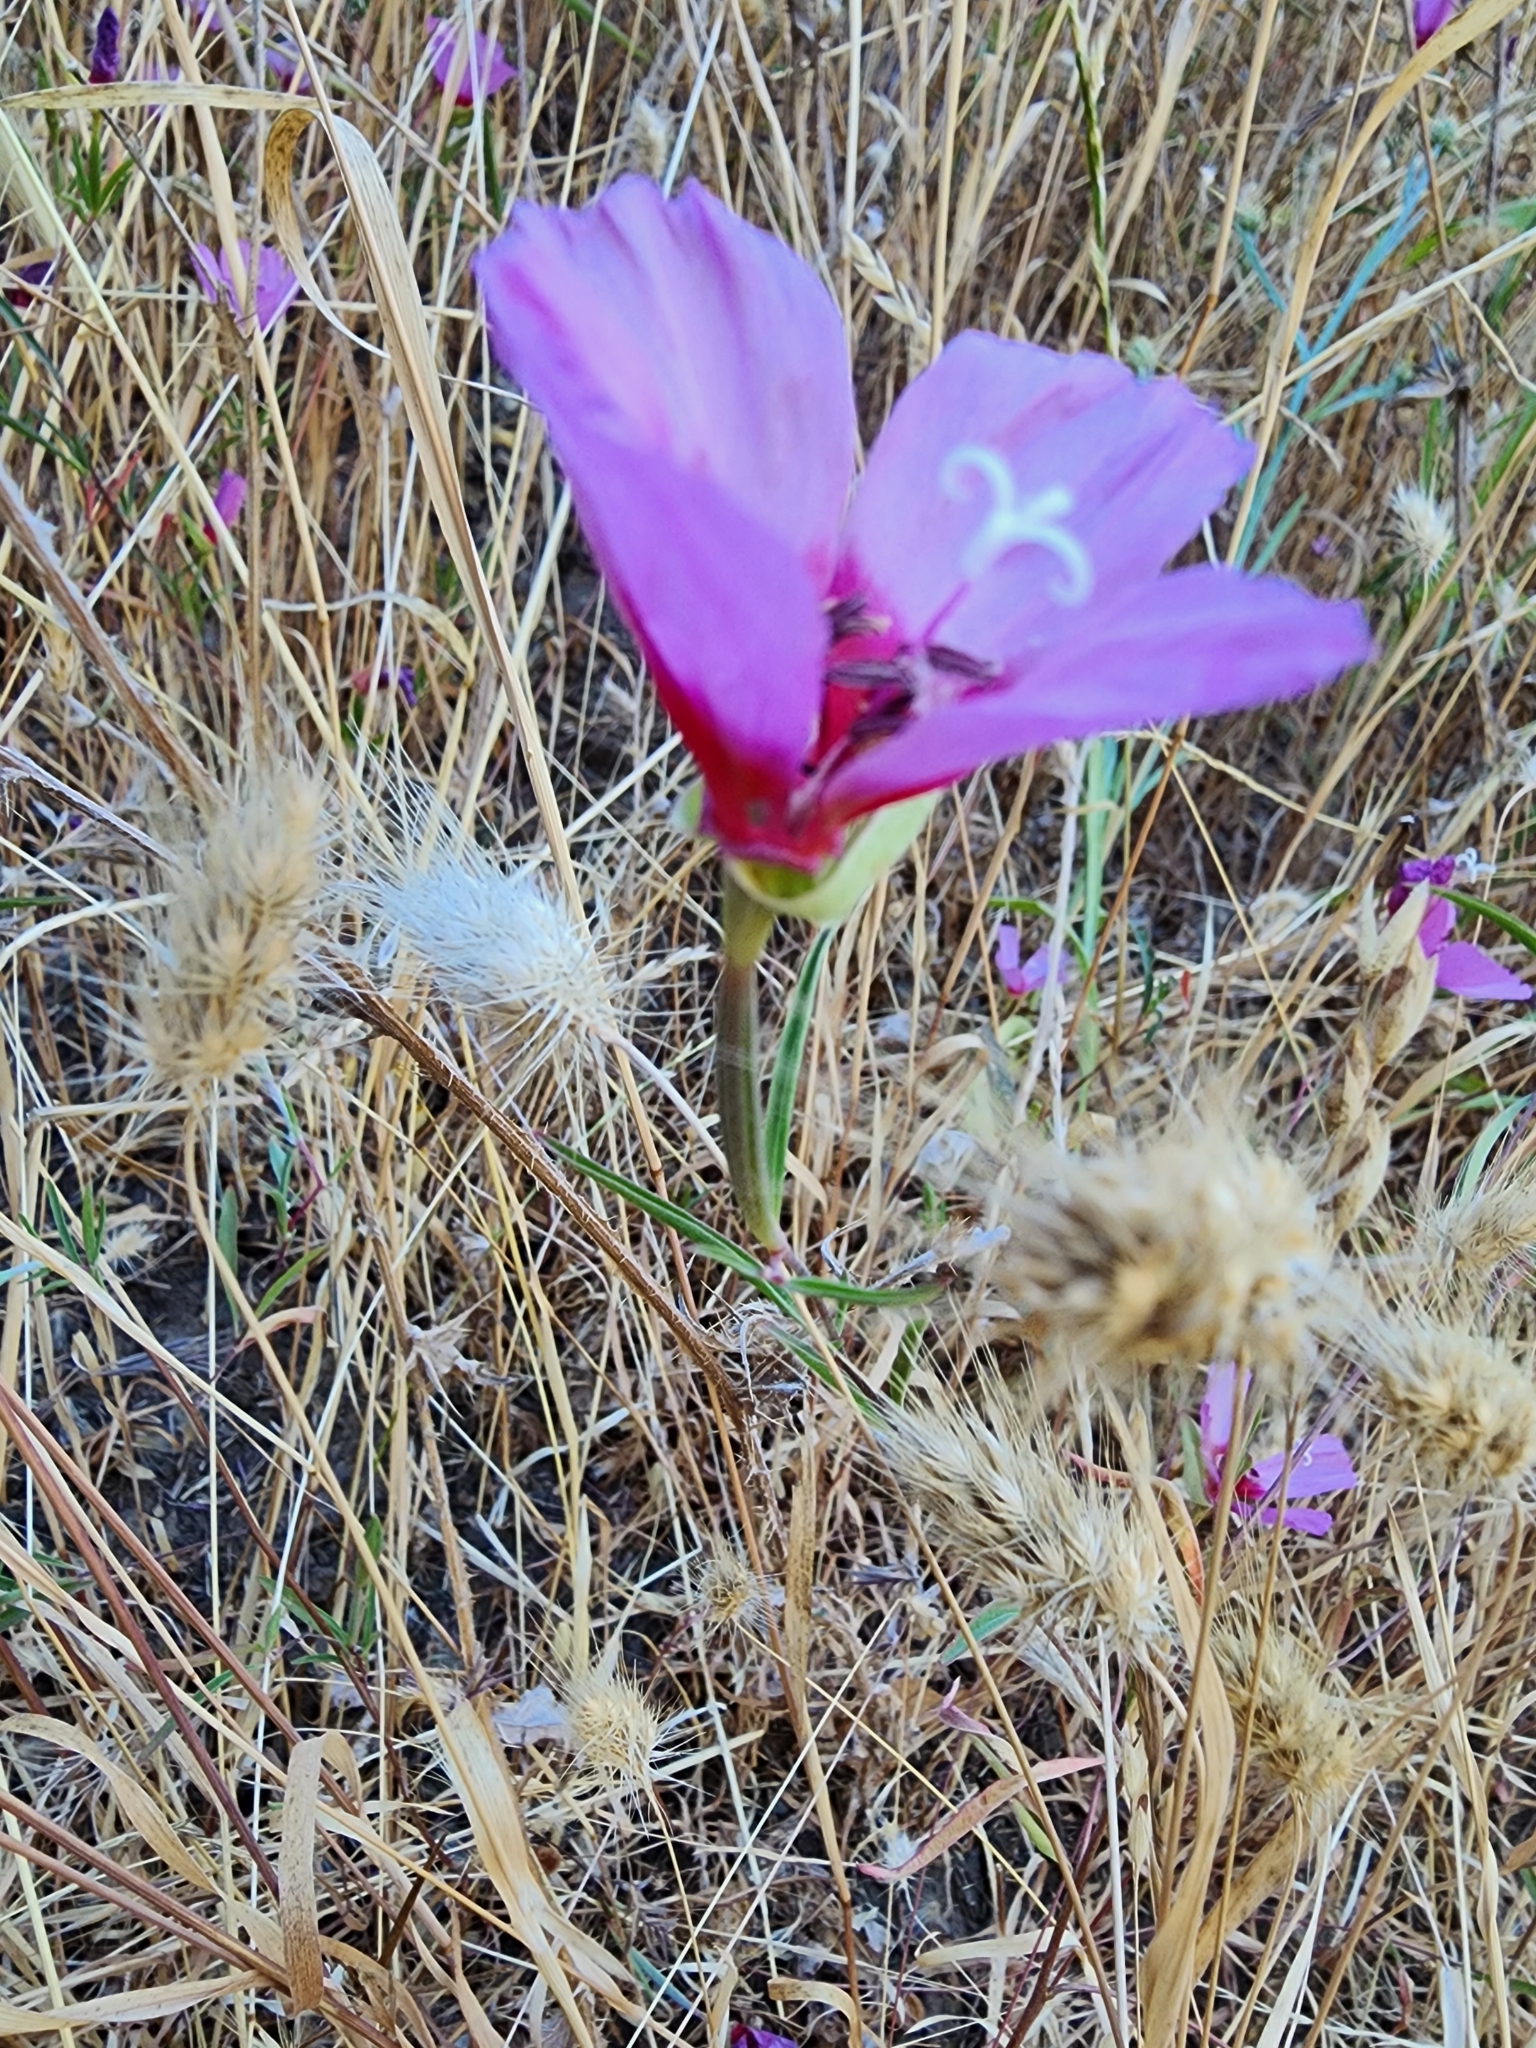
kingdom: Plantae
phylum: Tracheophyta
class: Magnoliopsida
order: Myrtales
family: Onagraceae
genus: Clarkia
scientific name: Clarkia rubicunda
